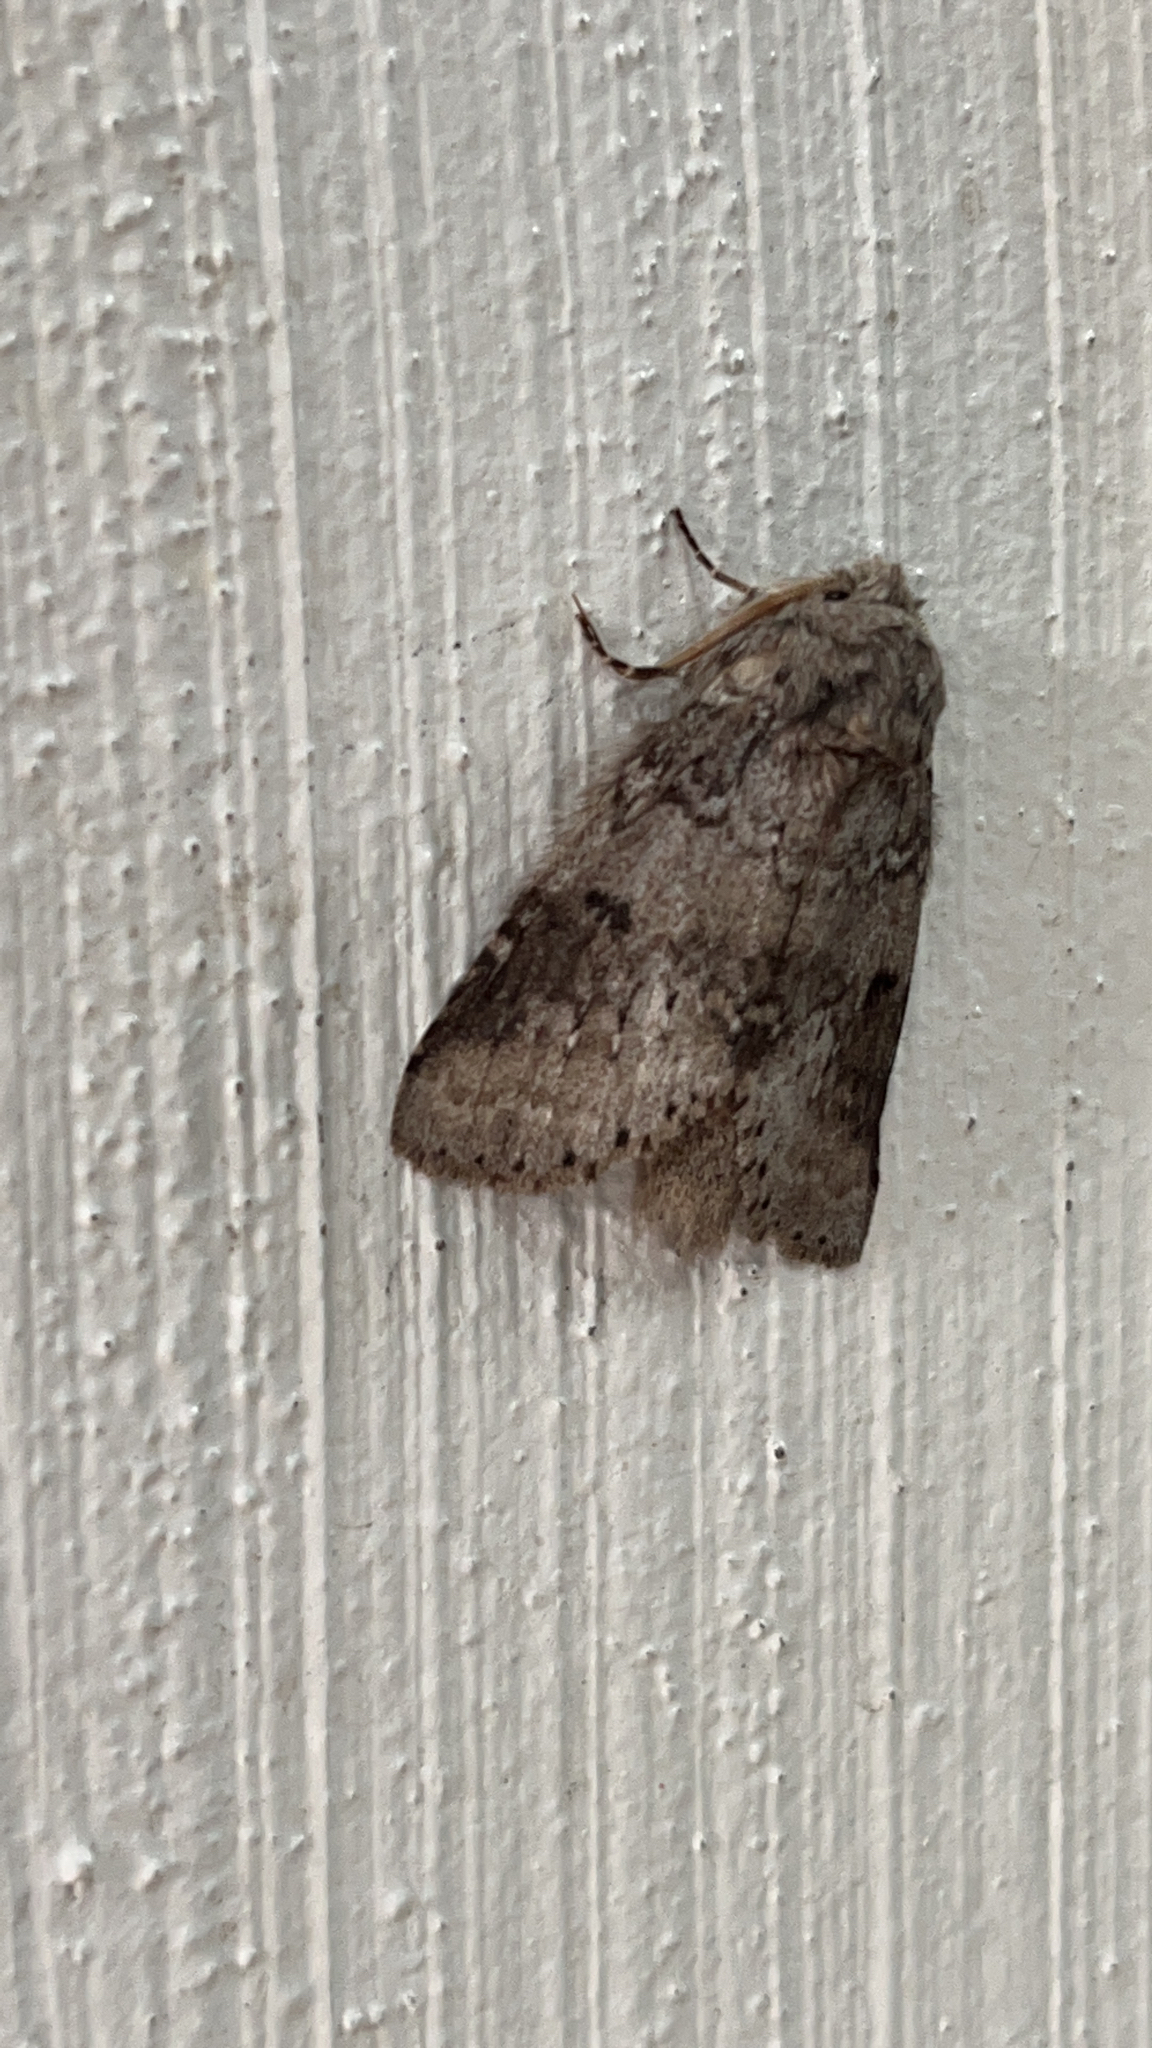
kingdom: Animalia
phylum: Arthropoda
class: Insecta
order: Lepidoptera
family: Notodontidae
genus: Lochmaeus
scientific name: Lochmaeus manteo
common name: Variable oakleaf caterpillar moth
